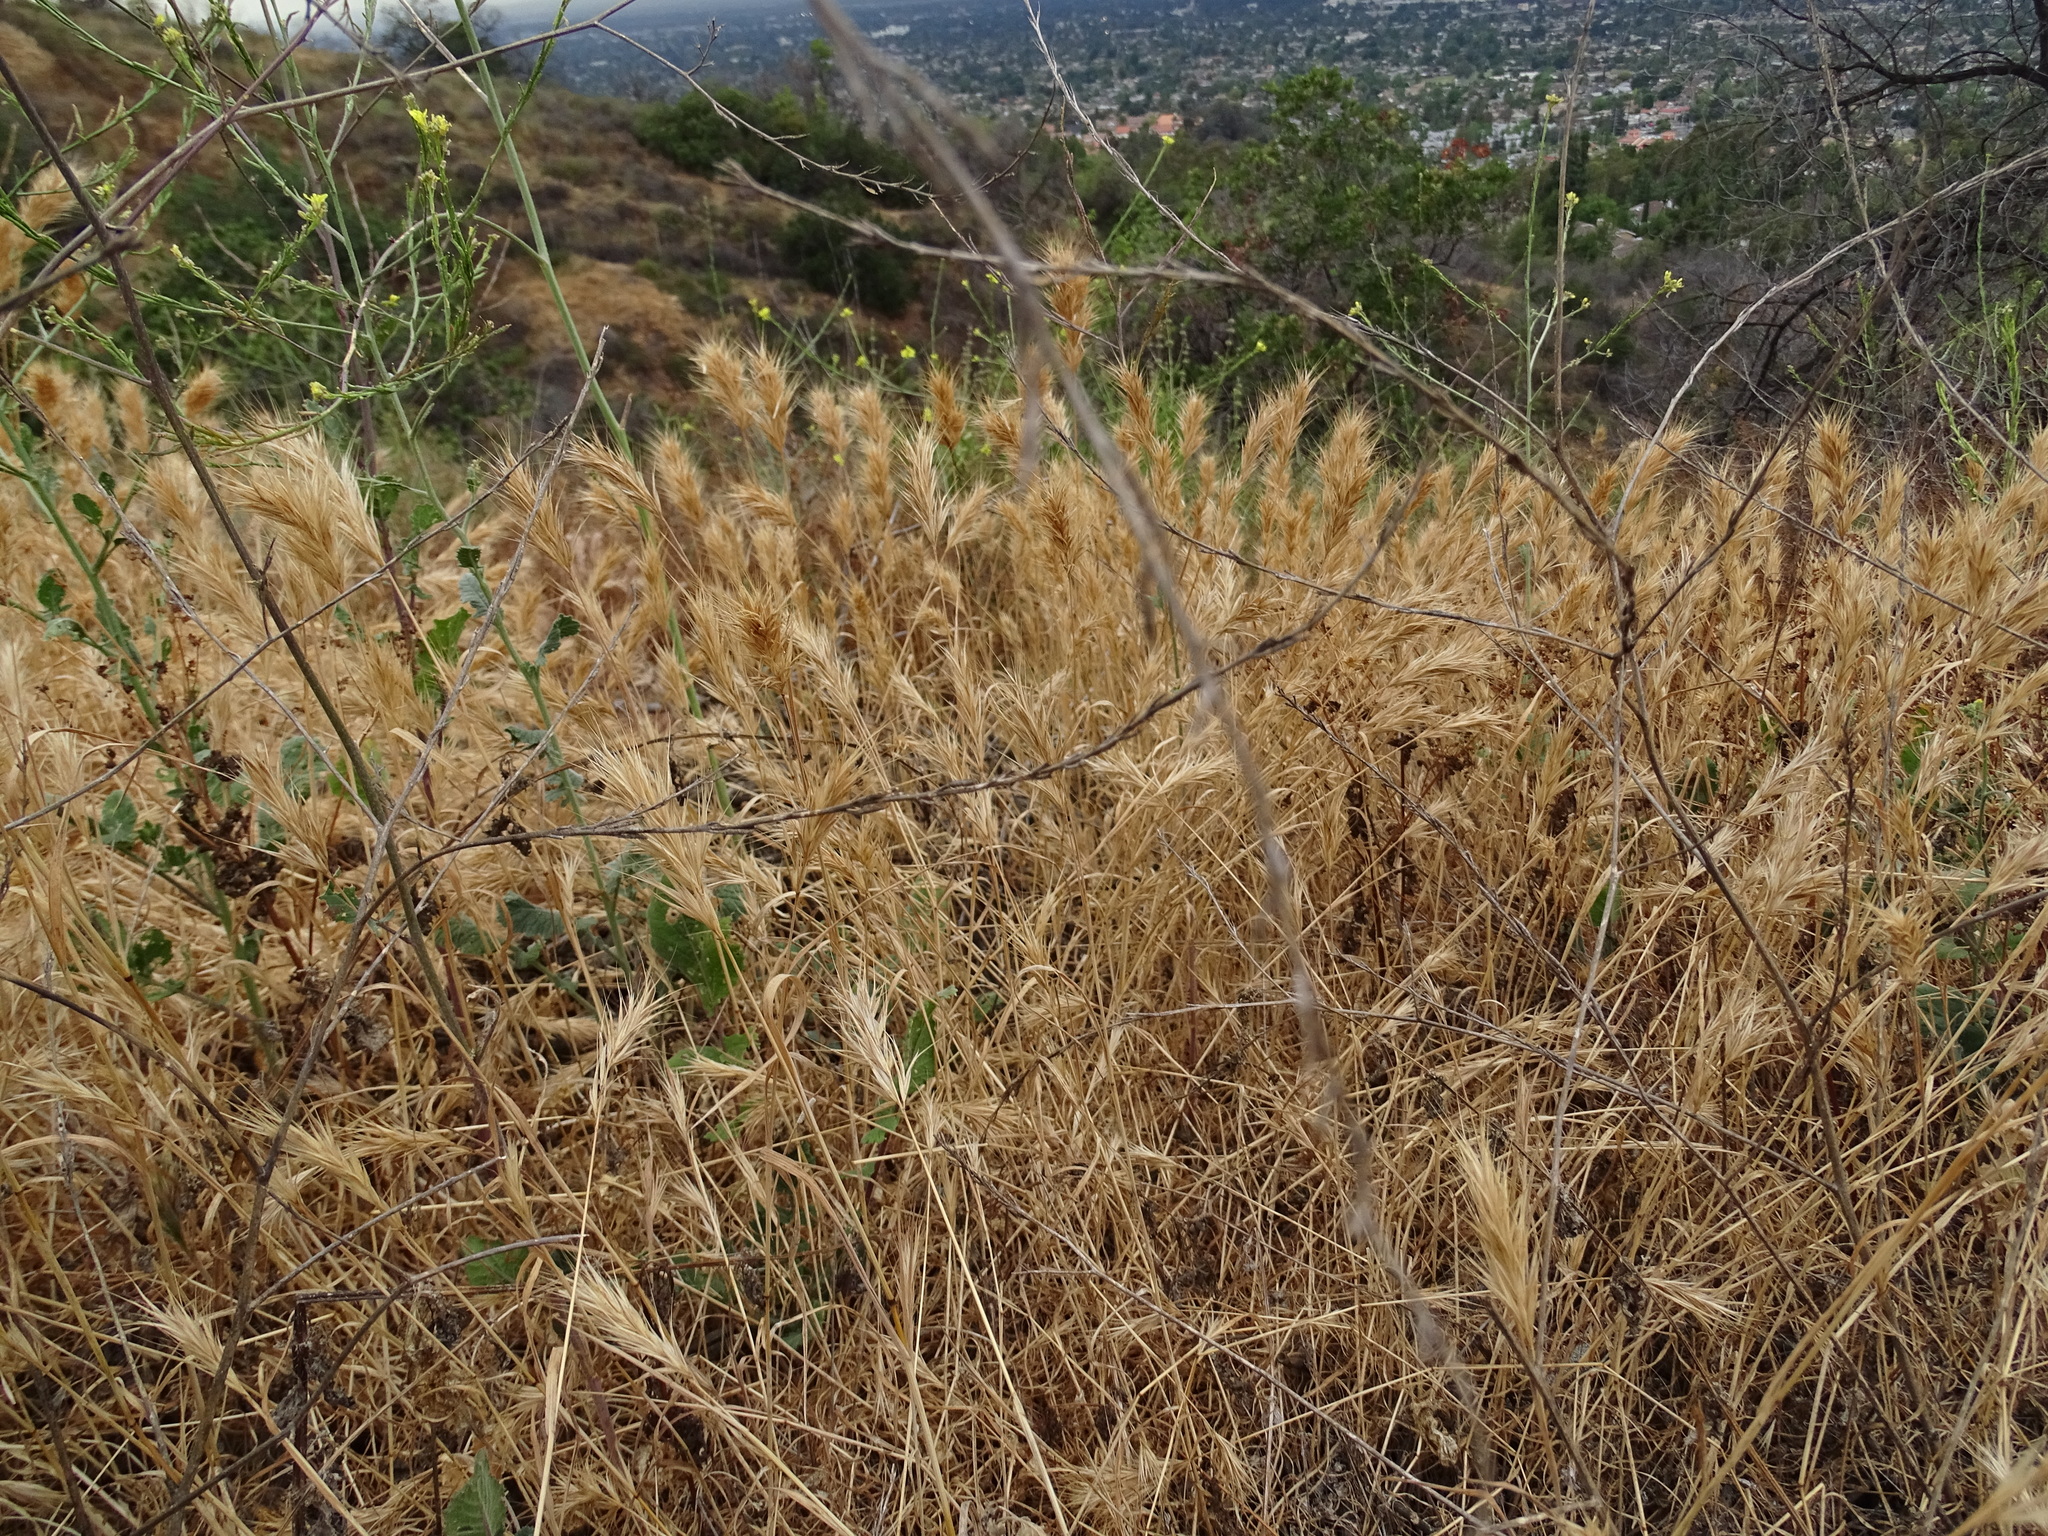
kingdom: Plantae
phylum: Tracheophyta
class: Liliopsida
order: Poales
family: Poaceae
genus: Bromus
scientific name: Bromus madritensis
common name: Compact brome
